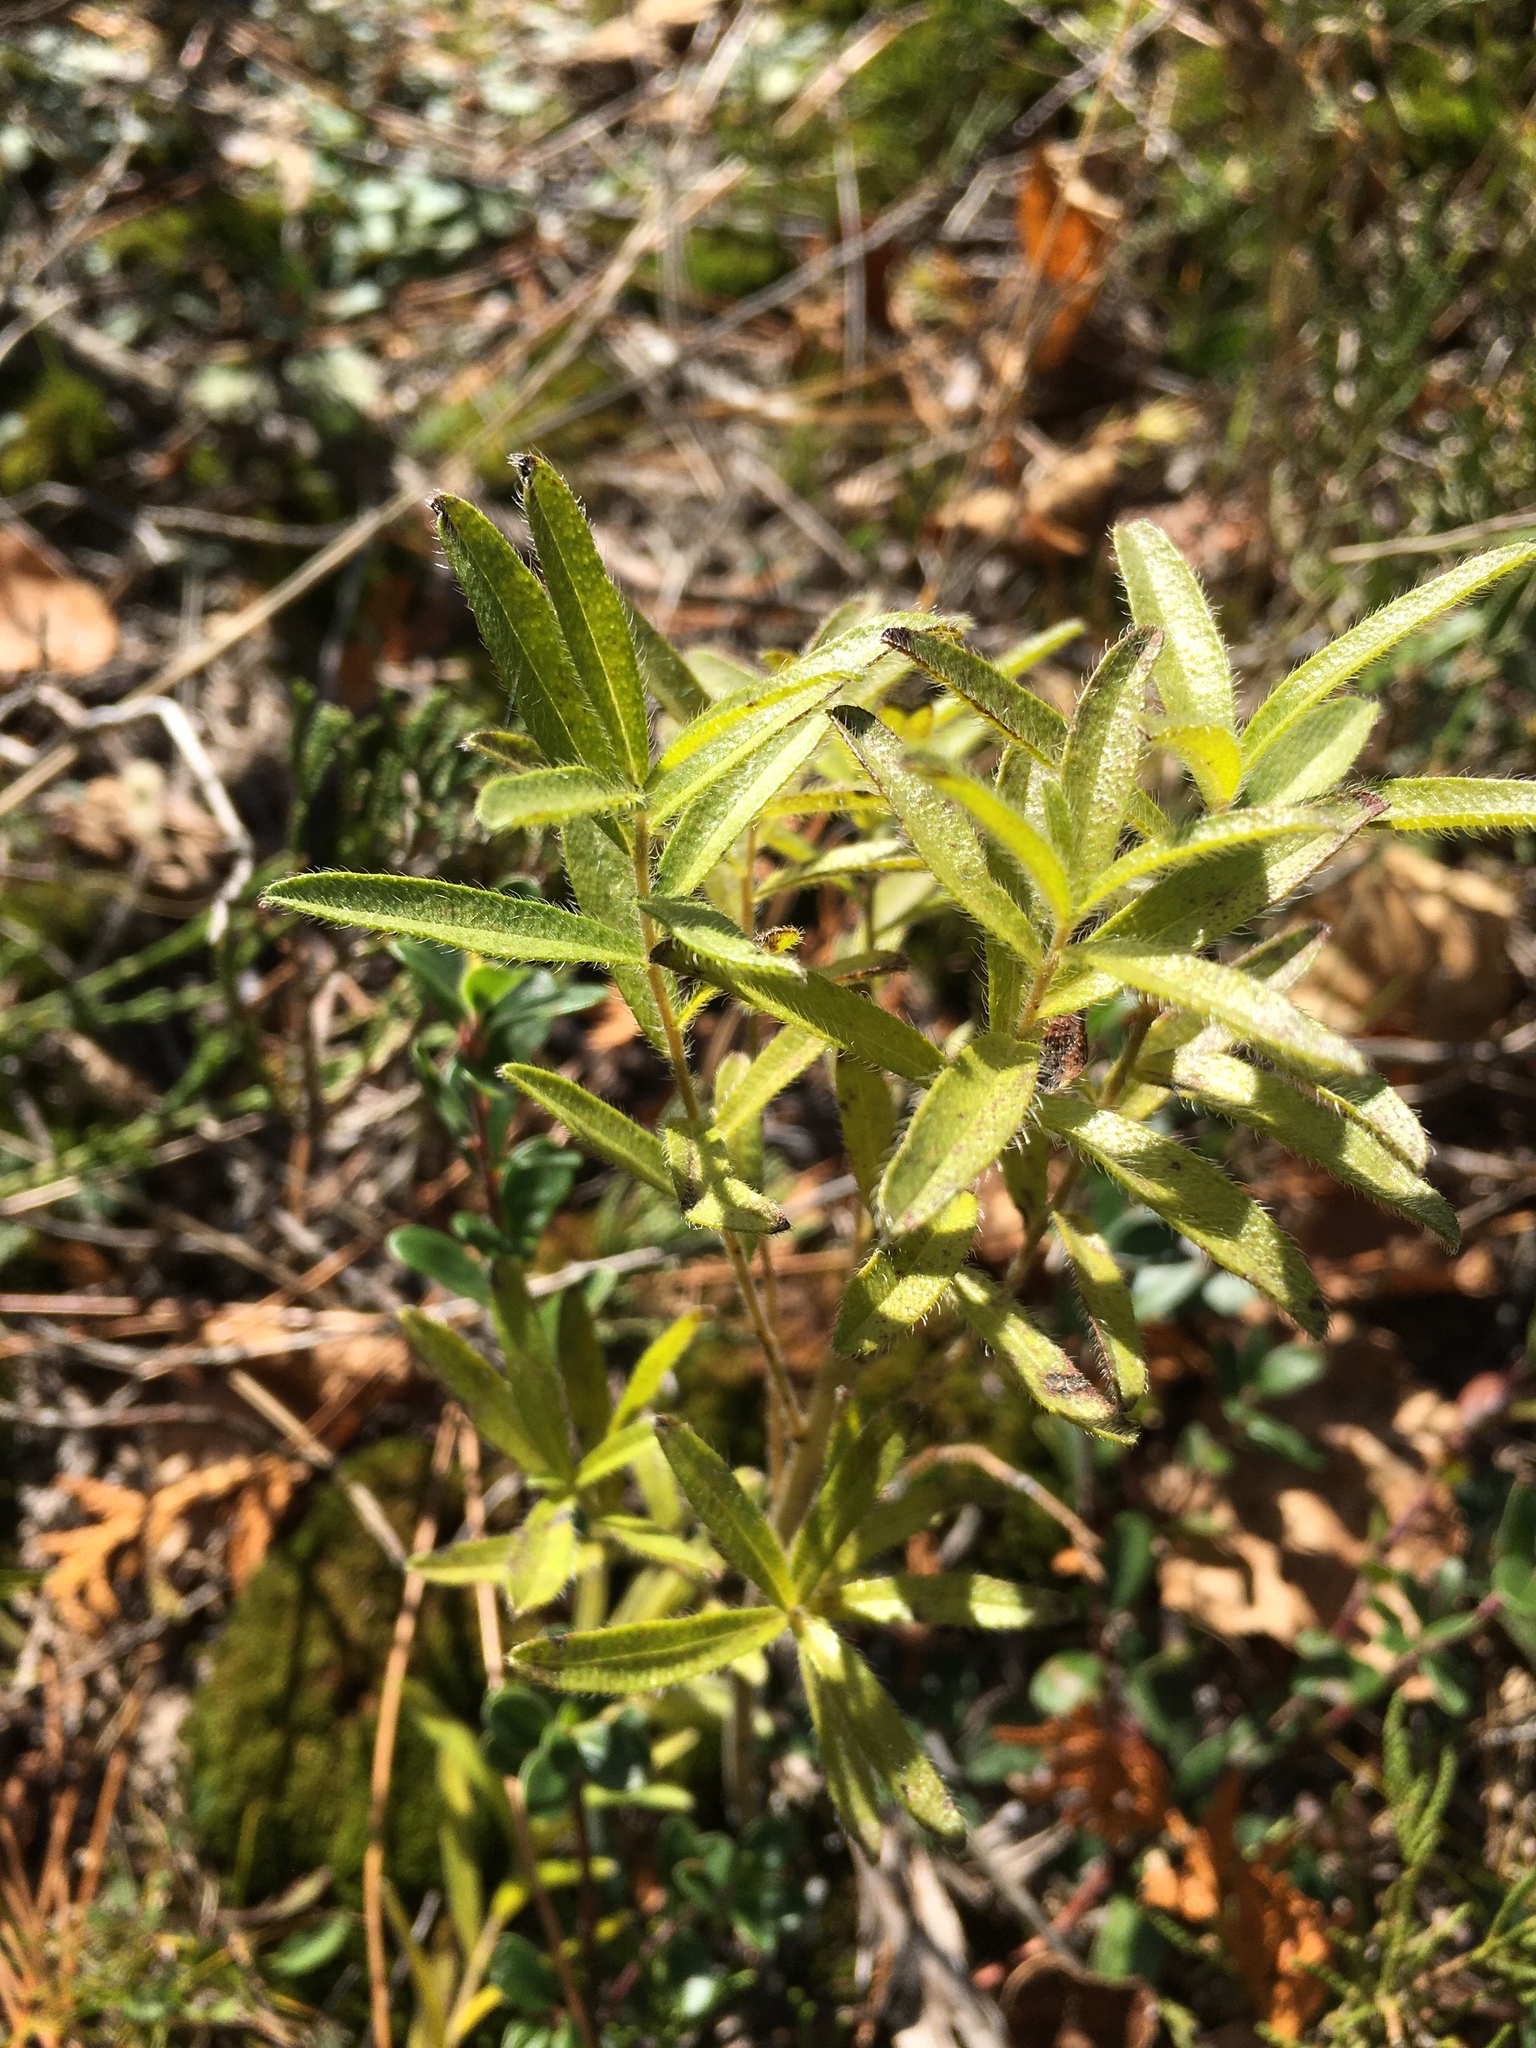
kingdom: Plantae
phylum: Tracheophyta
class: Magnoliopsida
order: Boraginales
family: Boraginaceae
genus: Lithospermum
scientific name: Lithospermum caroliniense
